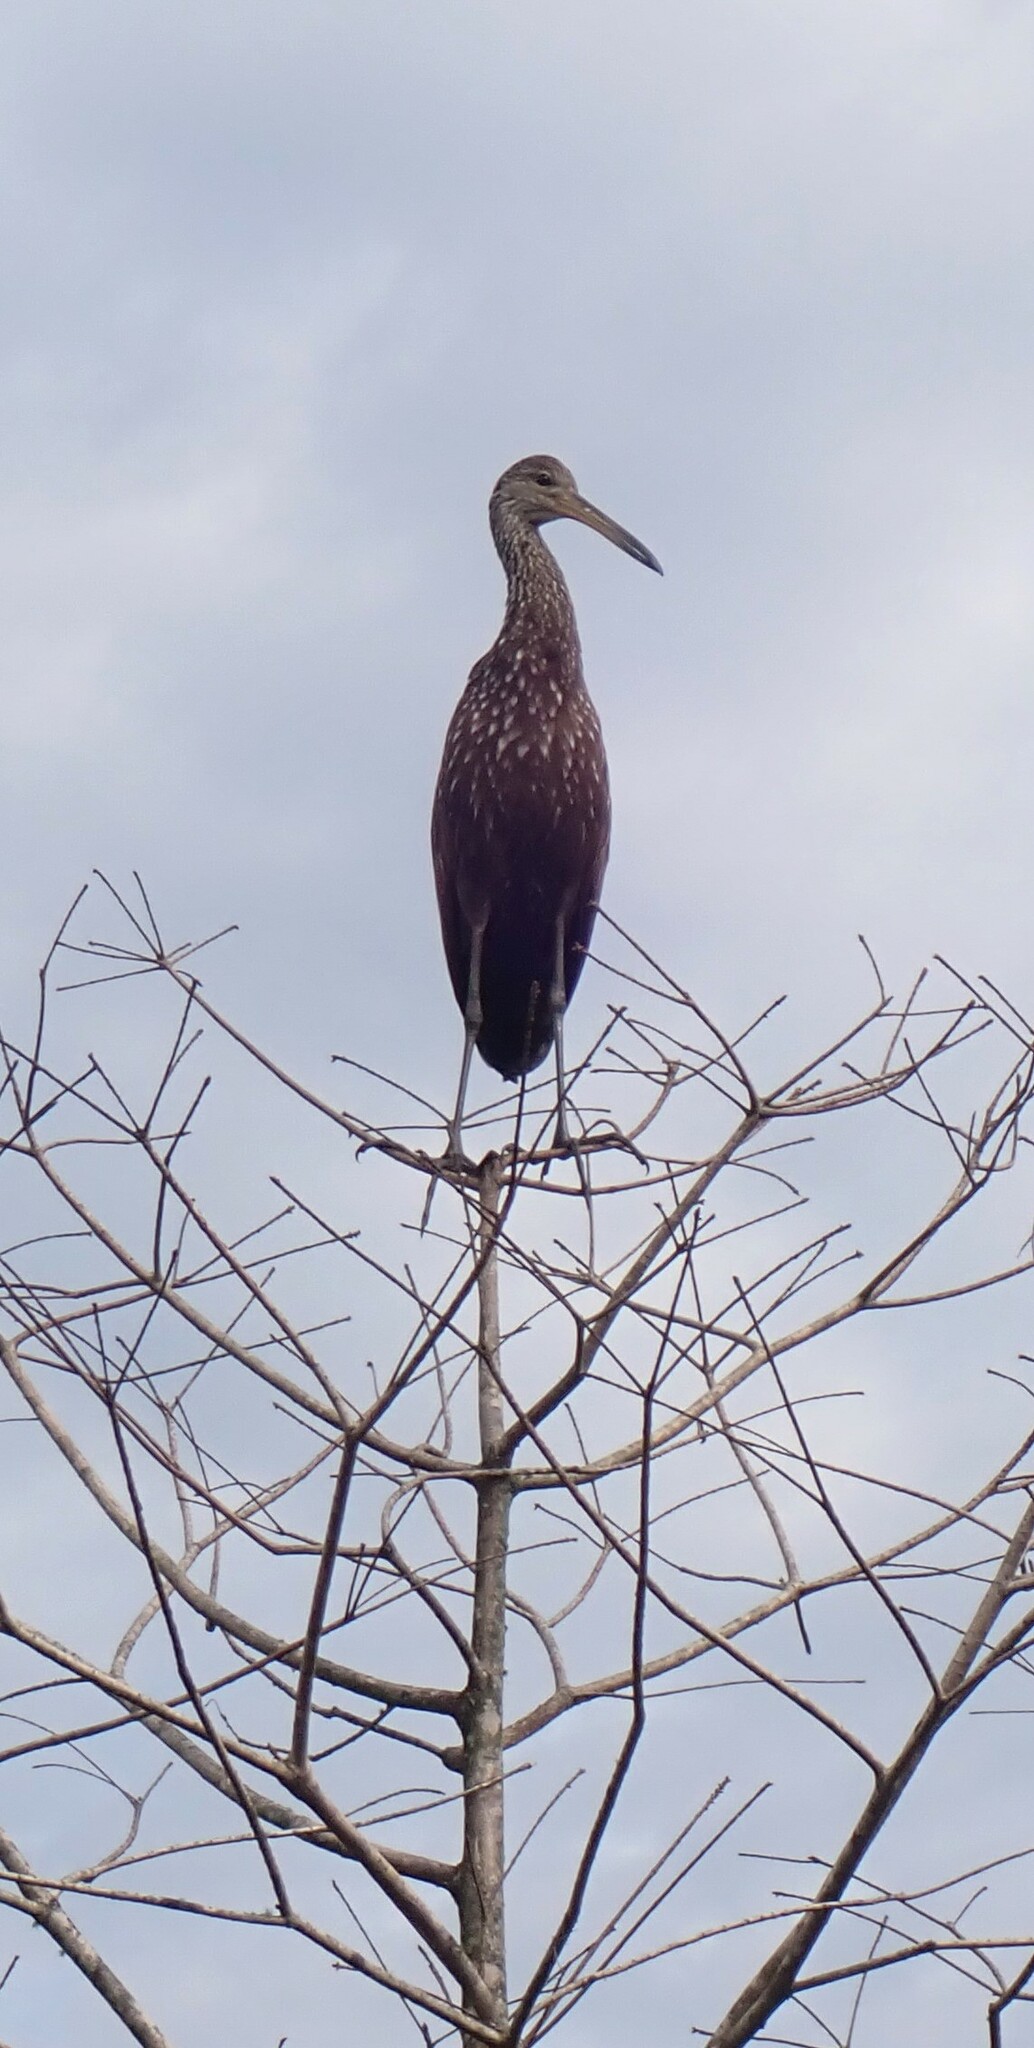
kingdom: Animalia
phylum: Chordata
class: Aves
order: Gruiformes
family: Aramidae
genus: Aramus
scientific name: Aramus guarauna
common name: Limpkin
